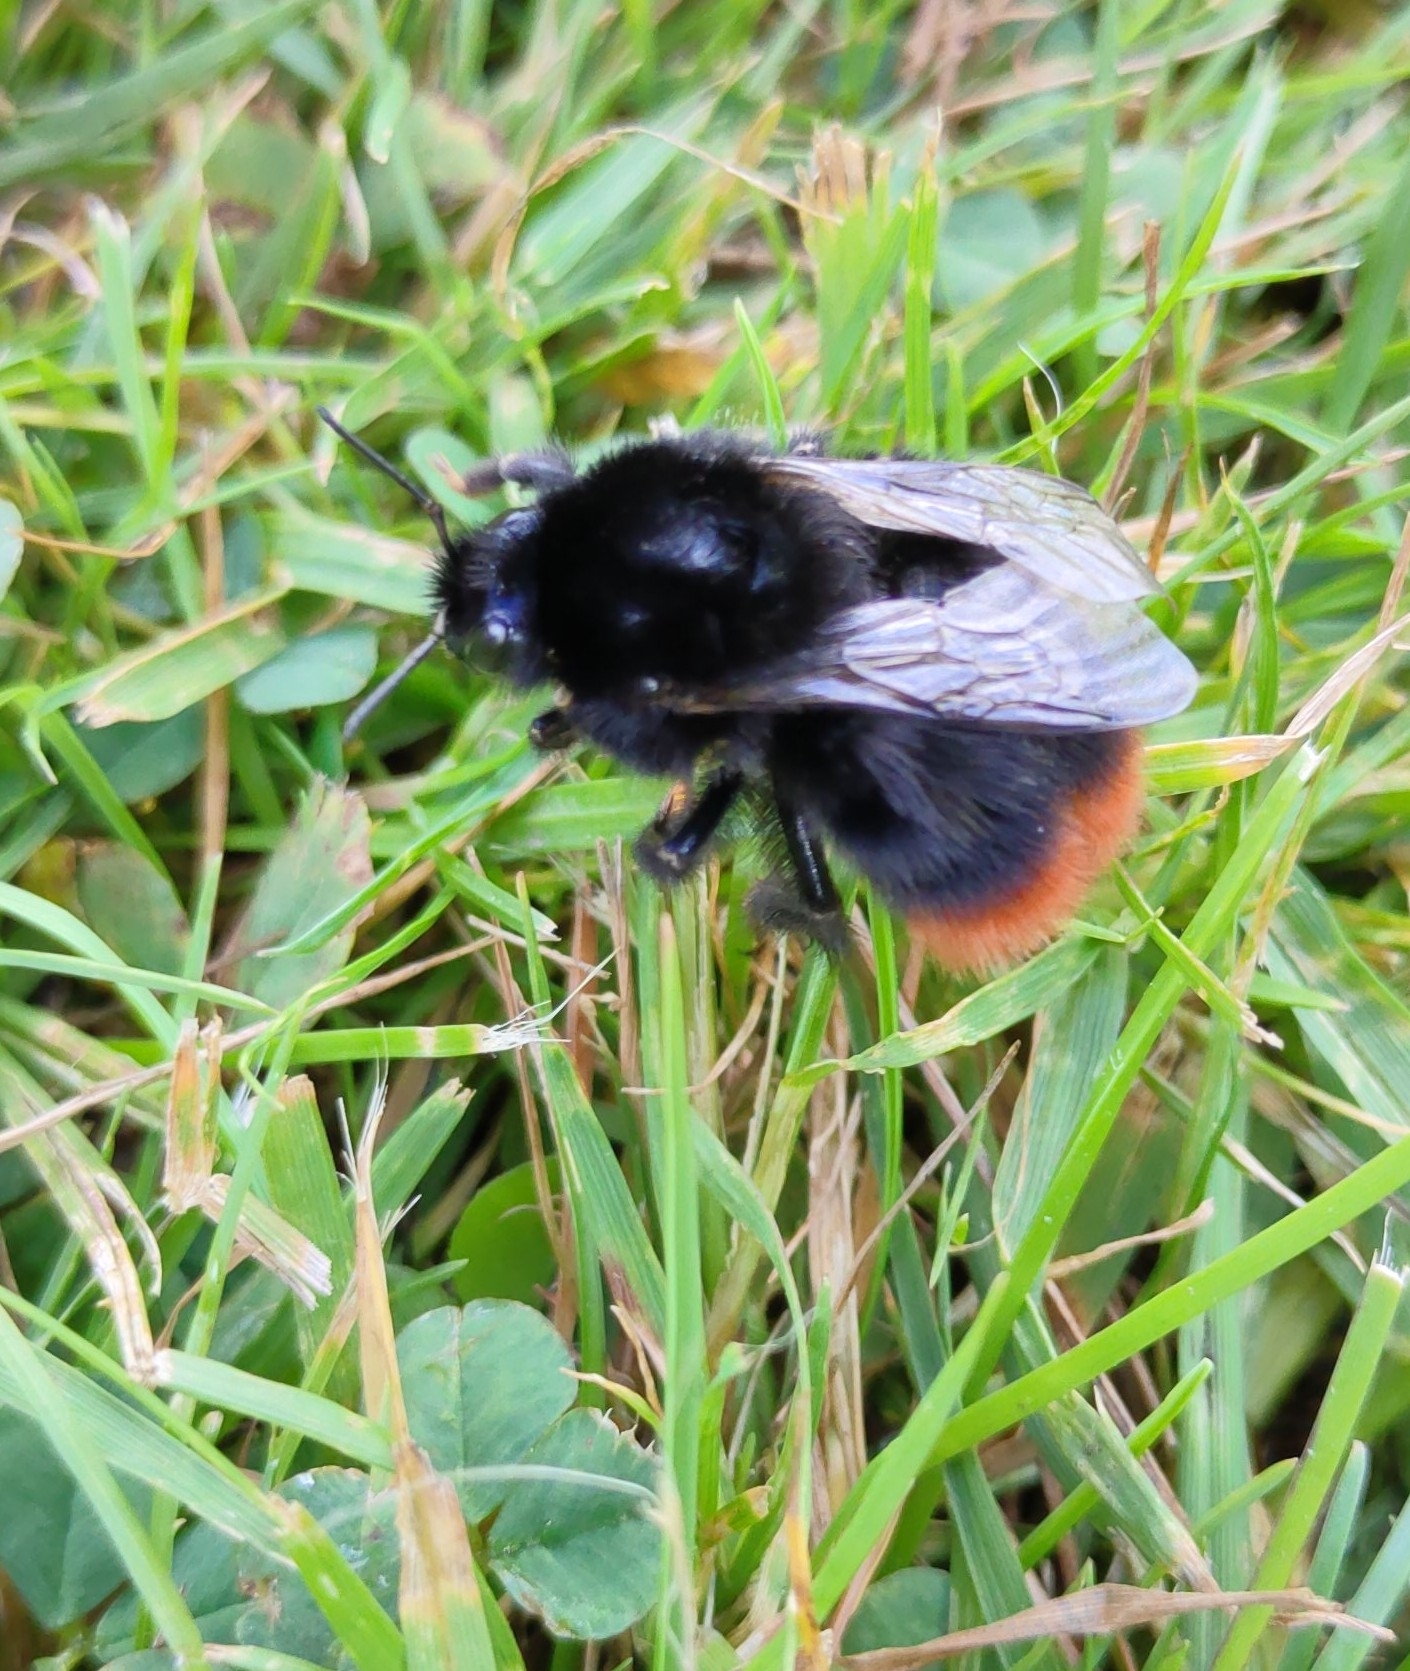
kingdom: Animalia
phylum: Arthropoda
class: Insecta
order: Hymenoptera
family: Apidae
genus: Bombus
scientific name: Bombus lapidarius
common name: Large red-tailed humble-bee
